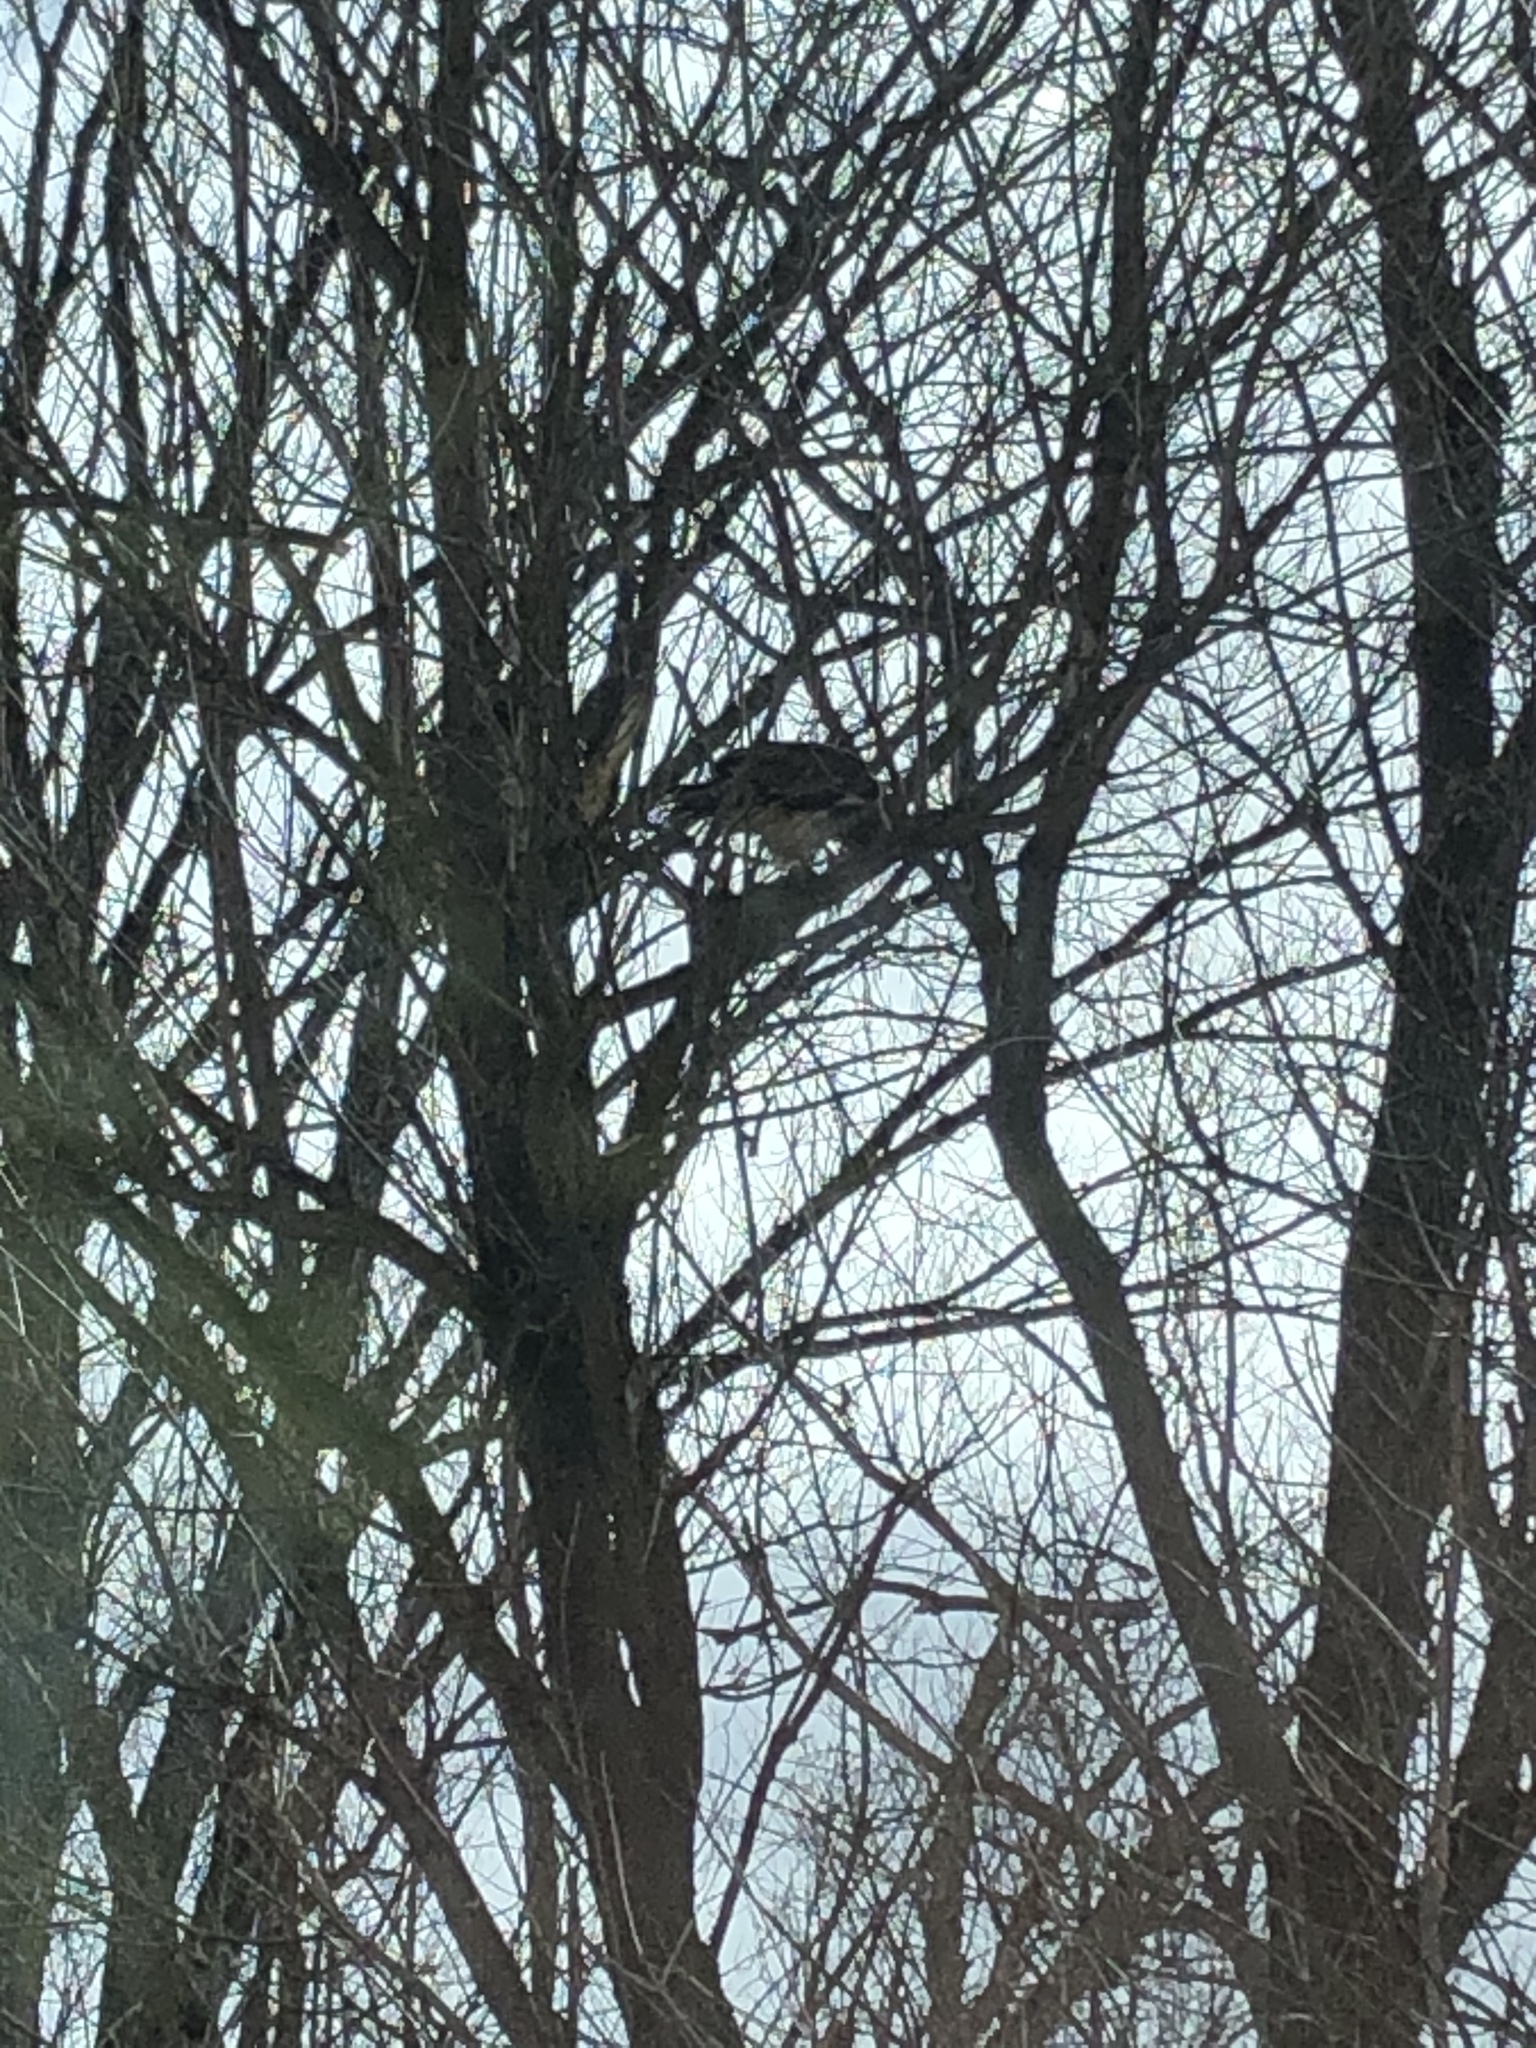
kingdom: Animalia
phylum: Chordata
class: Aves
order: Accipitriformes
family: Accipitridae
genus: Buteo
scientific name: Buteo jamaicensis
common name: Red-tailed hawk
